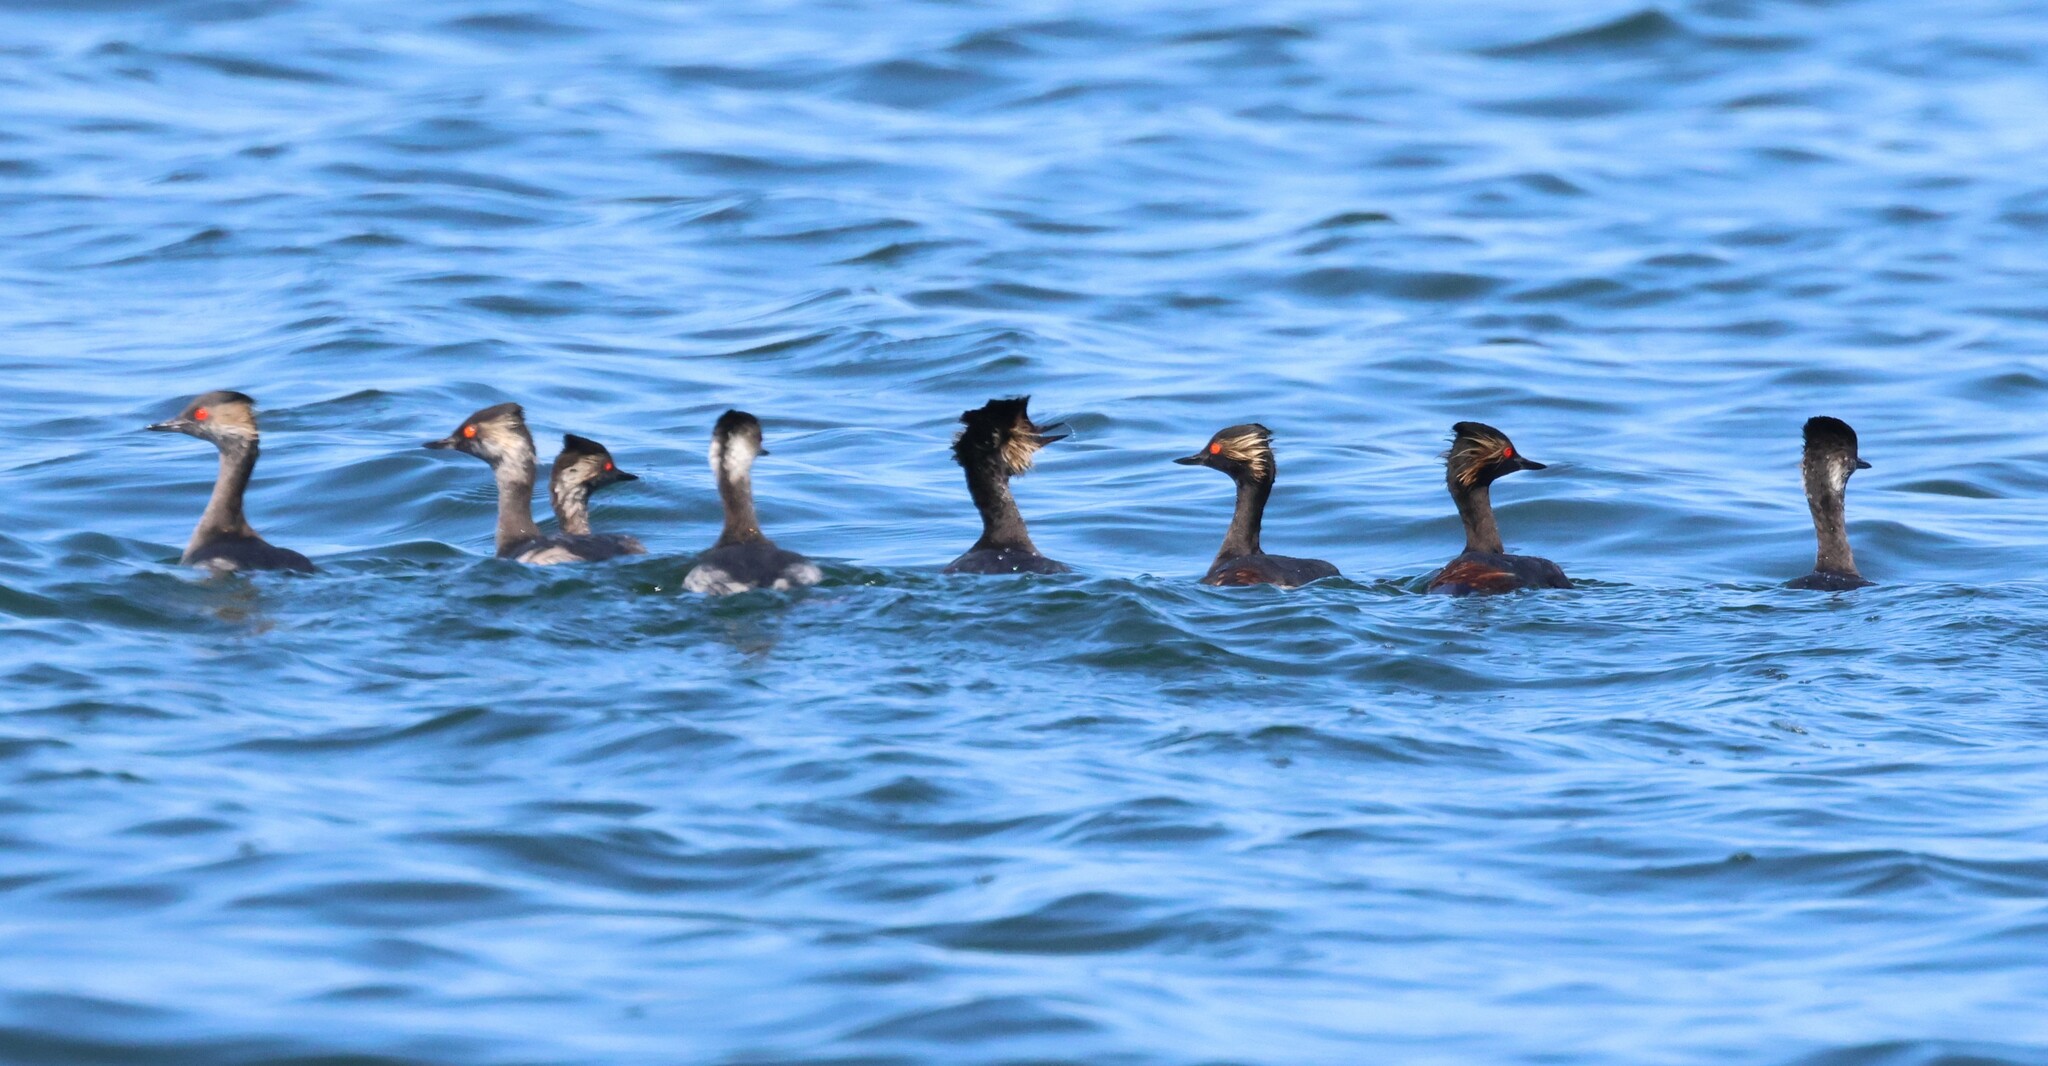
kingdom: Animalia
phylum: Chordata
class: Aves
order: Podicipediformes
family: Podicipedidae
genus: Podiceps
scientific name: Podiceps nigricollis
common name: Black-necked grebe
